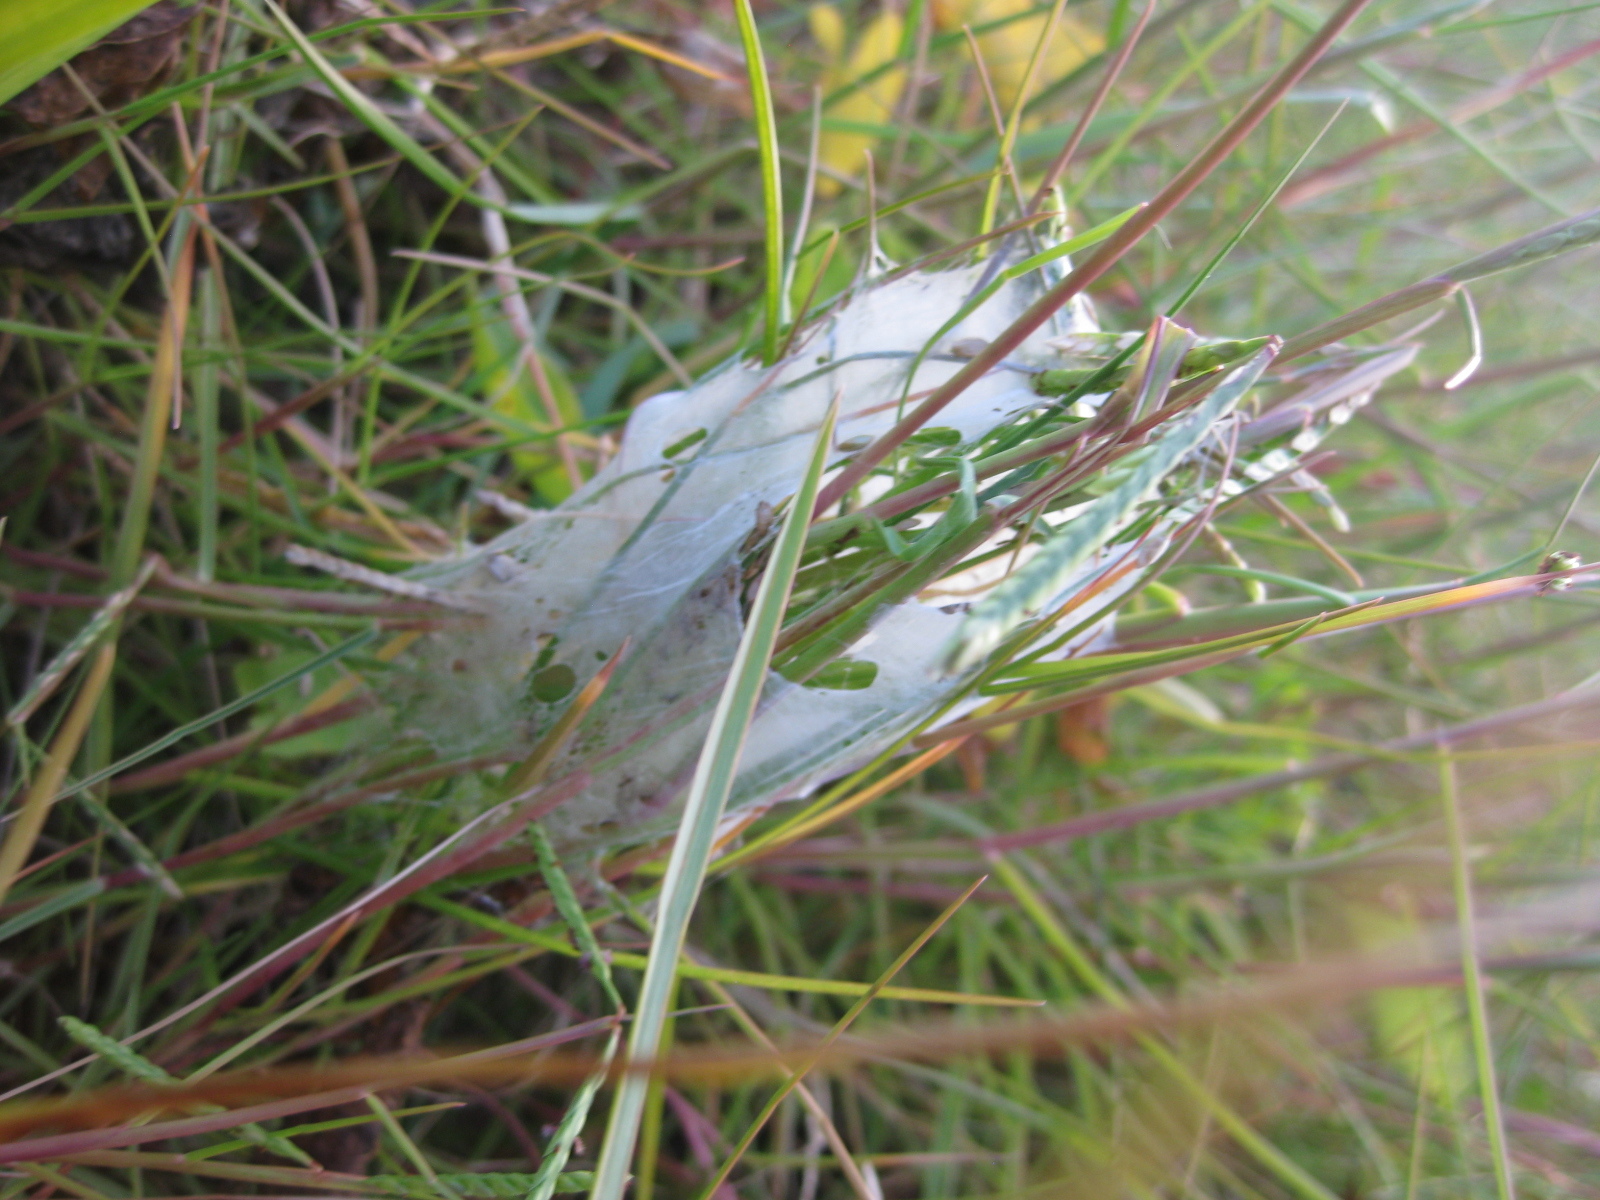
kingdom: Animalia
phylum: Arthropoda
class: Arachnida
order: Araneae
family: Pisauridae
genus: Dolomedes
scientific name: Dolomedes minor
